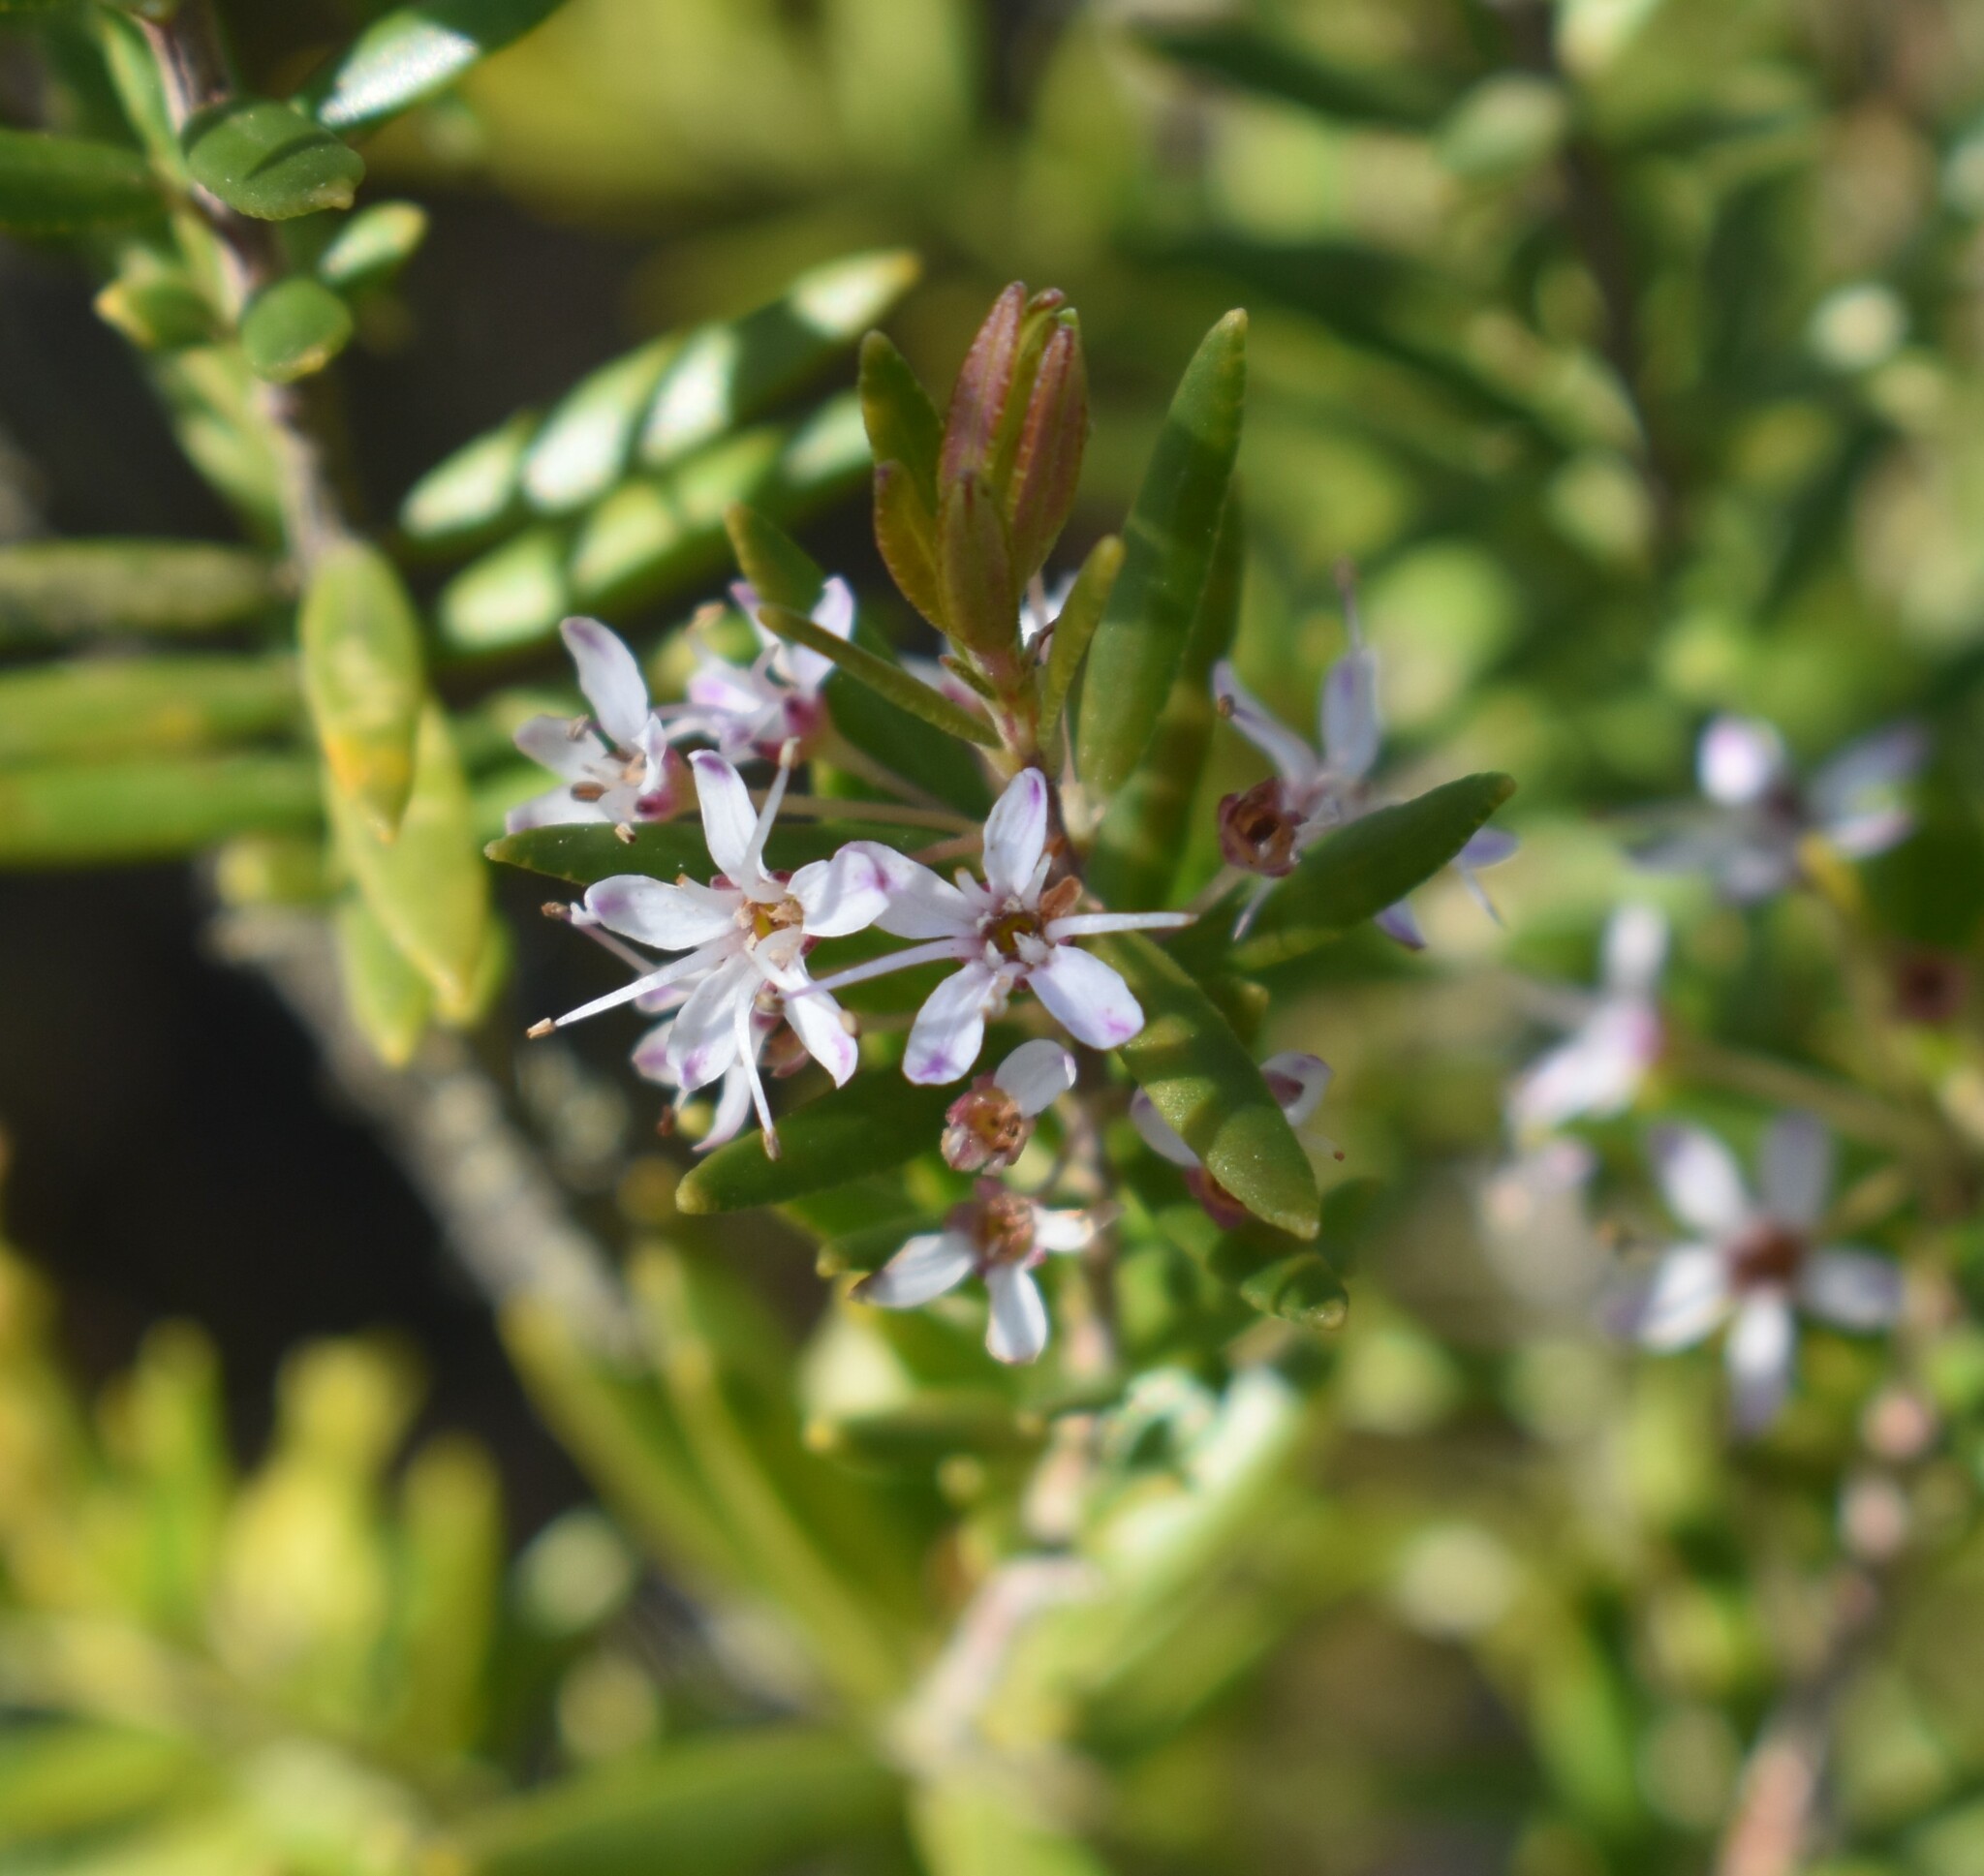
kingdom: Plantae
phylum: Tracheophyta
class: Magnoliopsida
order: Sapindales
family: Rutaceae
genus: Agathosma
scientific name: Agathosma ovata
